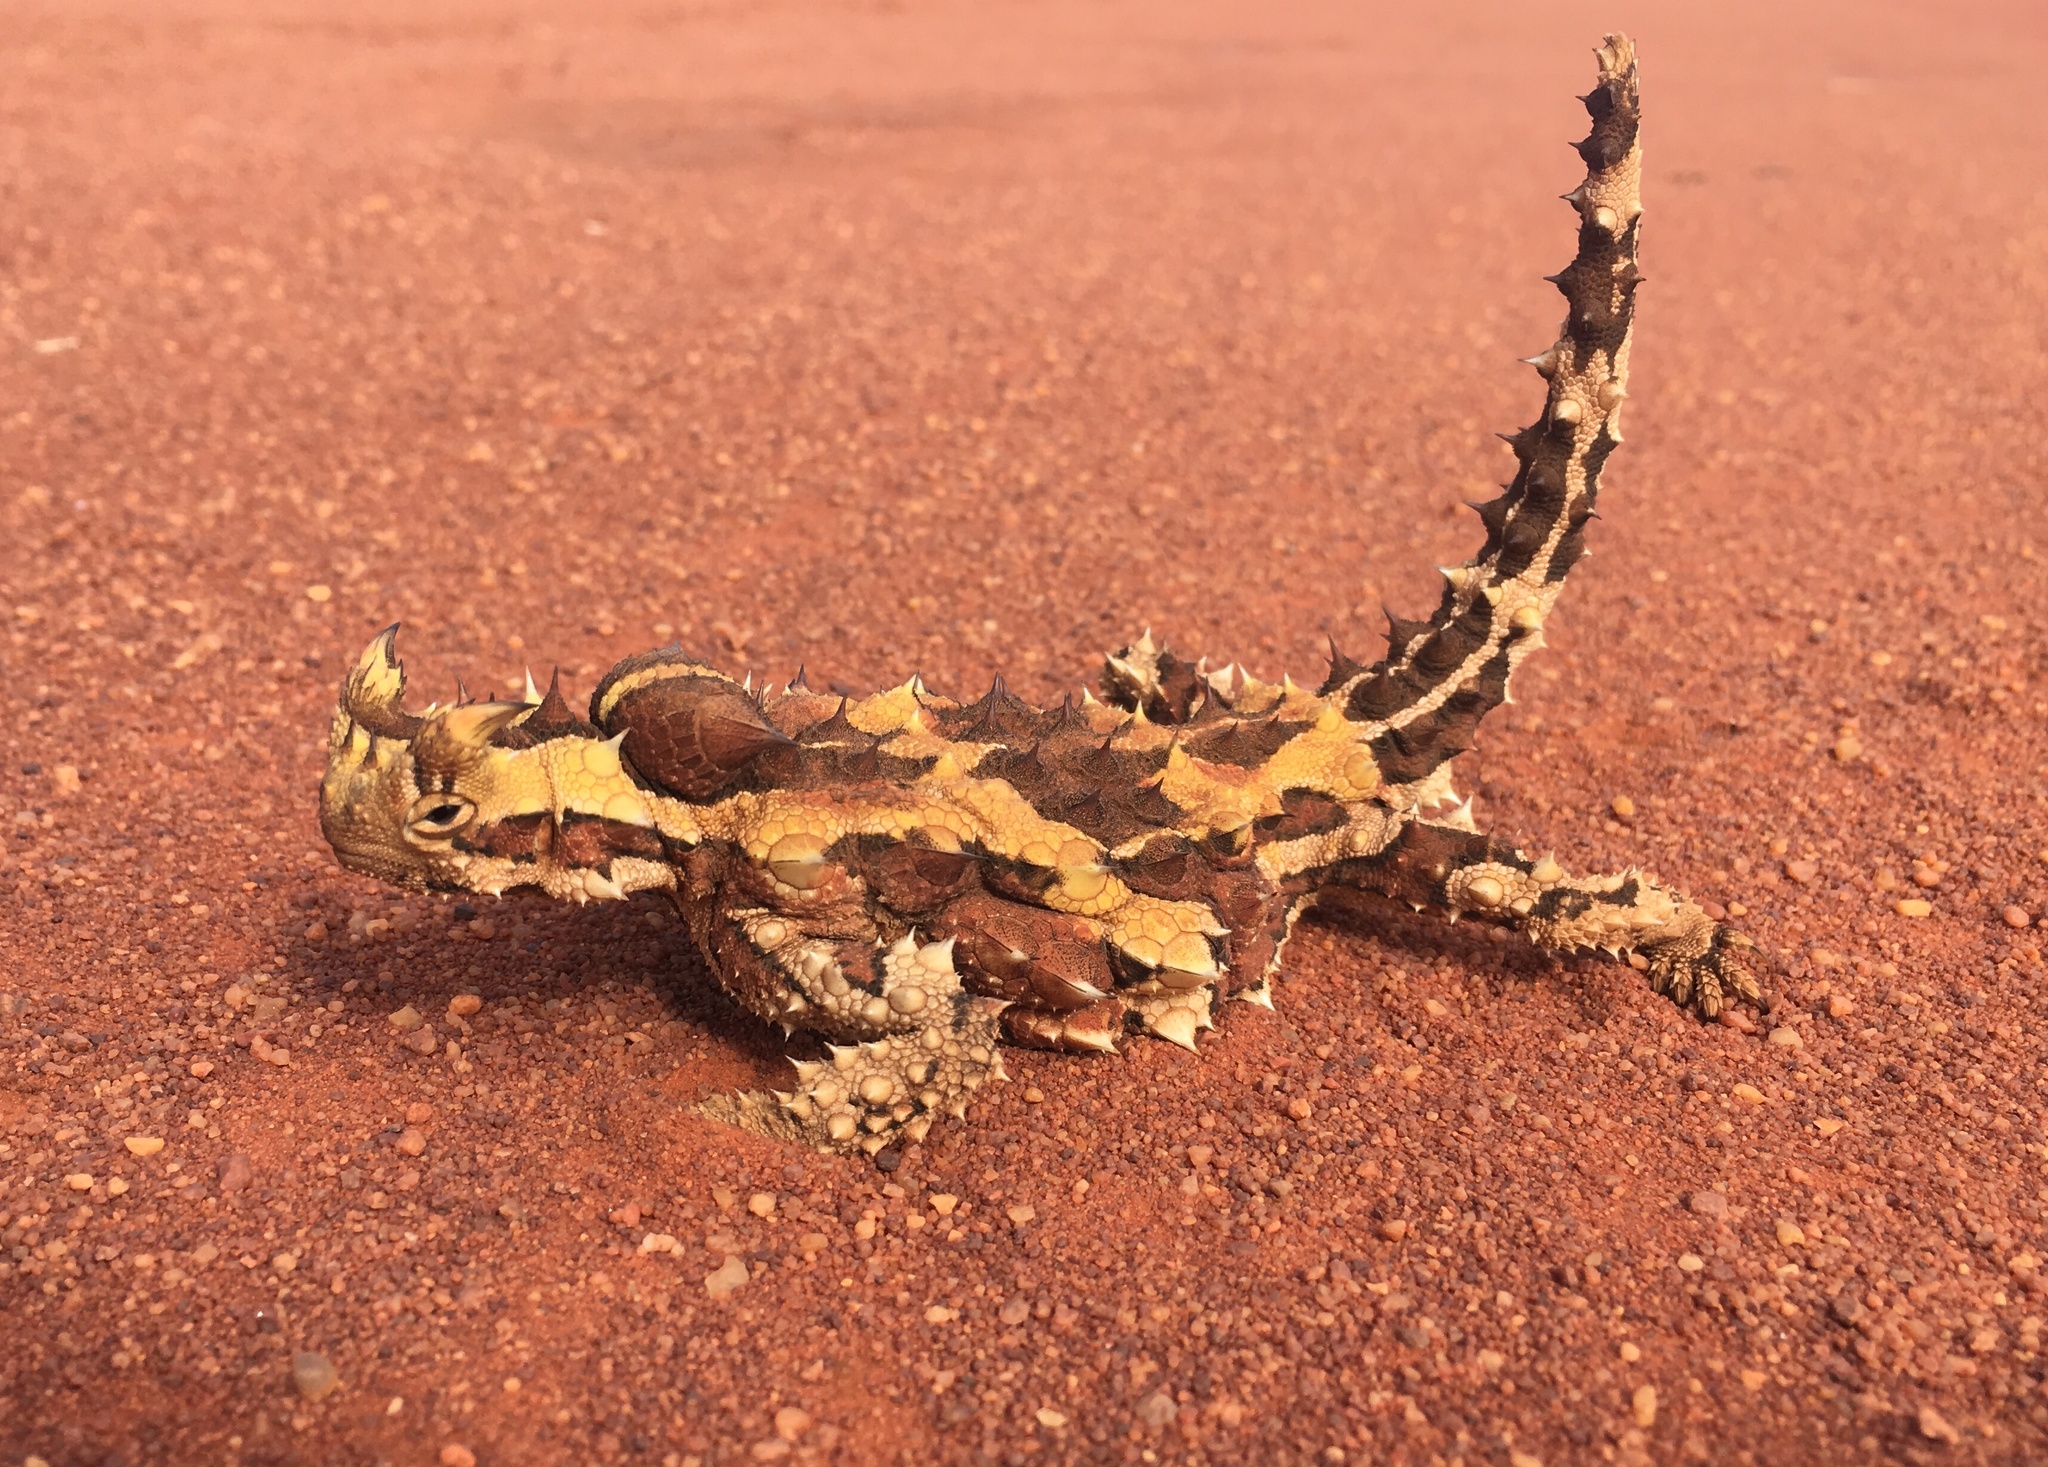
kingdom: Animalia
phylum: Chordata
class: Squamata
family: Agamidae
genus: Moloch
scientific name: Moloch horridus
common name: Mountain devil
